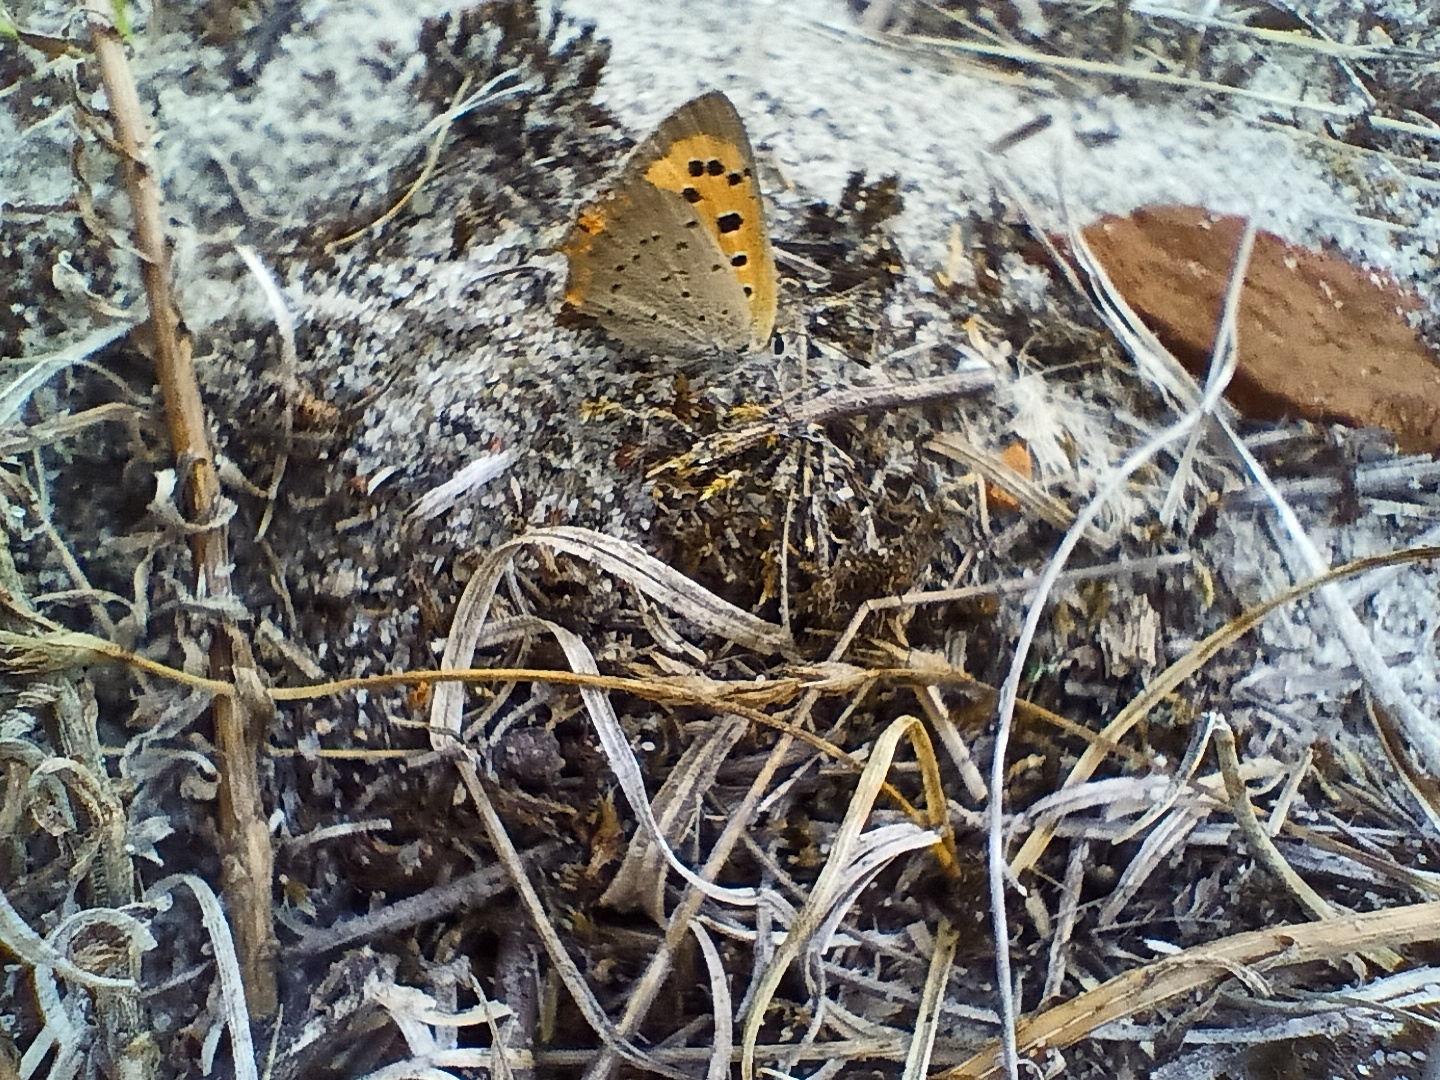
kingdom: Animalia
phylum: Arthropoda
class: Insecta
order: Lepidoptera
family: Lycaenidae
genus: Lycaena
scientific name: Lycaena phlaeas
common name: Small copper
